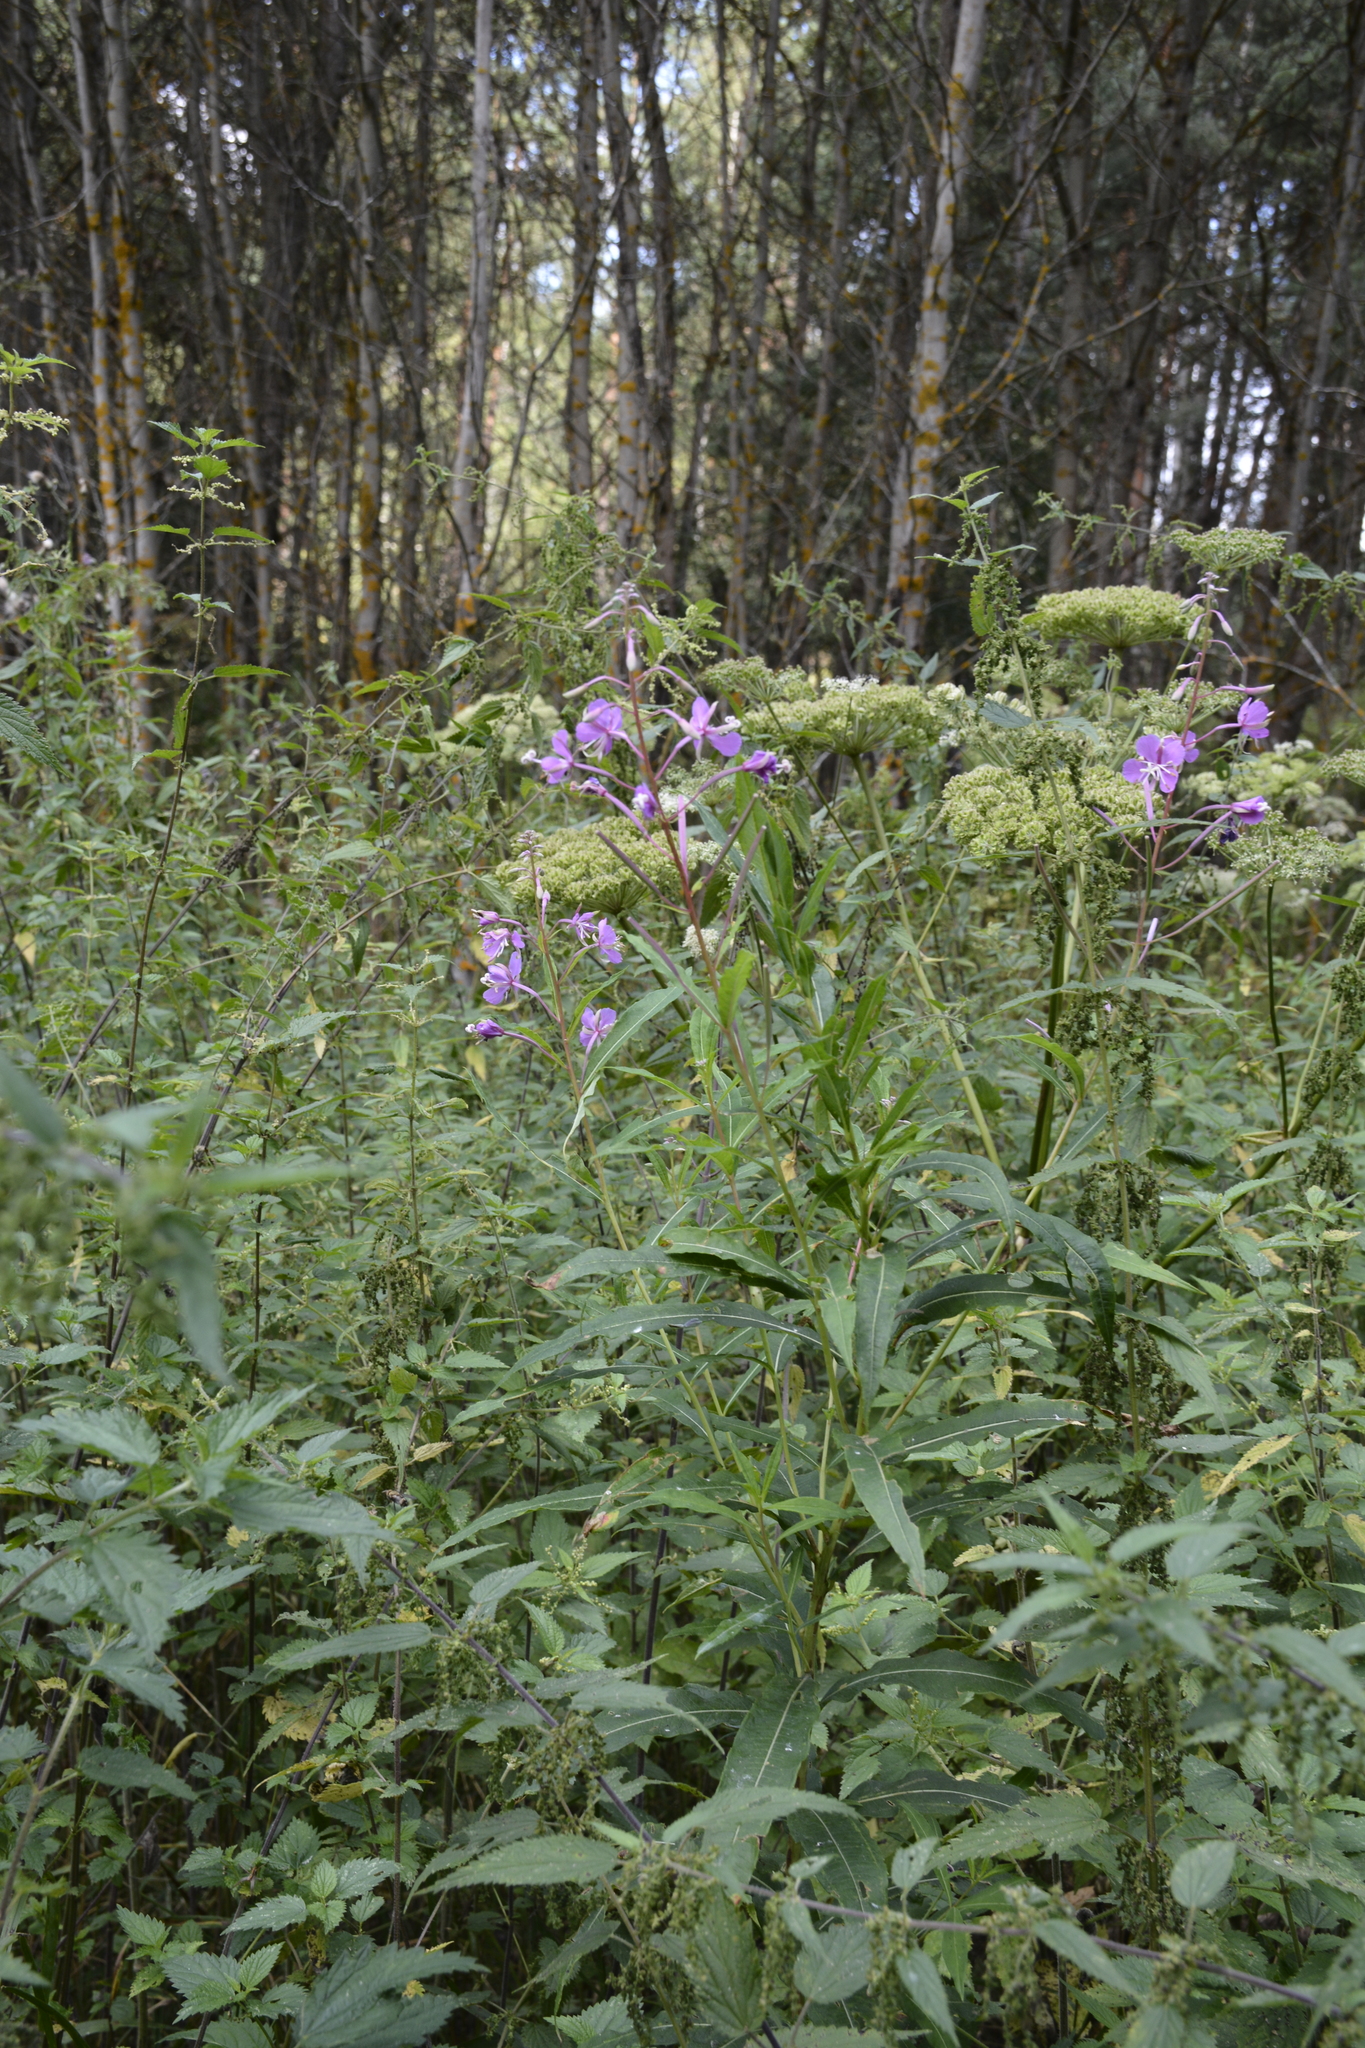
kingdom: Plantae
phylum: Tracheophyta
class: Magnoliopsida
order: Myrtales
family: Onagraceae
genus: Chamaenerion
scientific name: Chamaenerion angustifolium
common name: Fireweed
